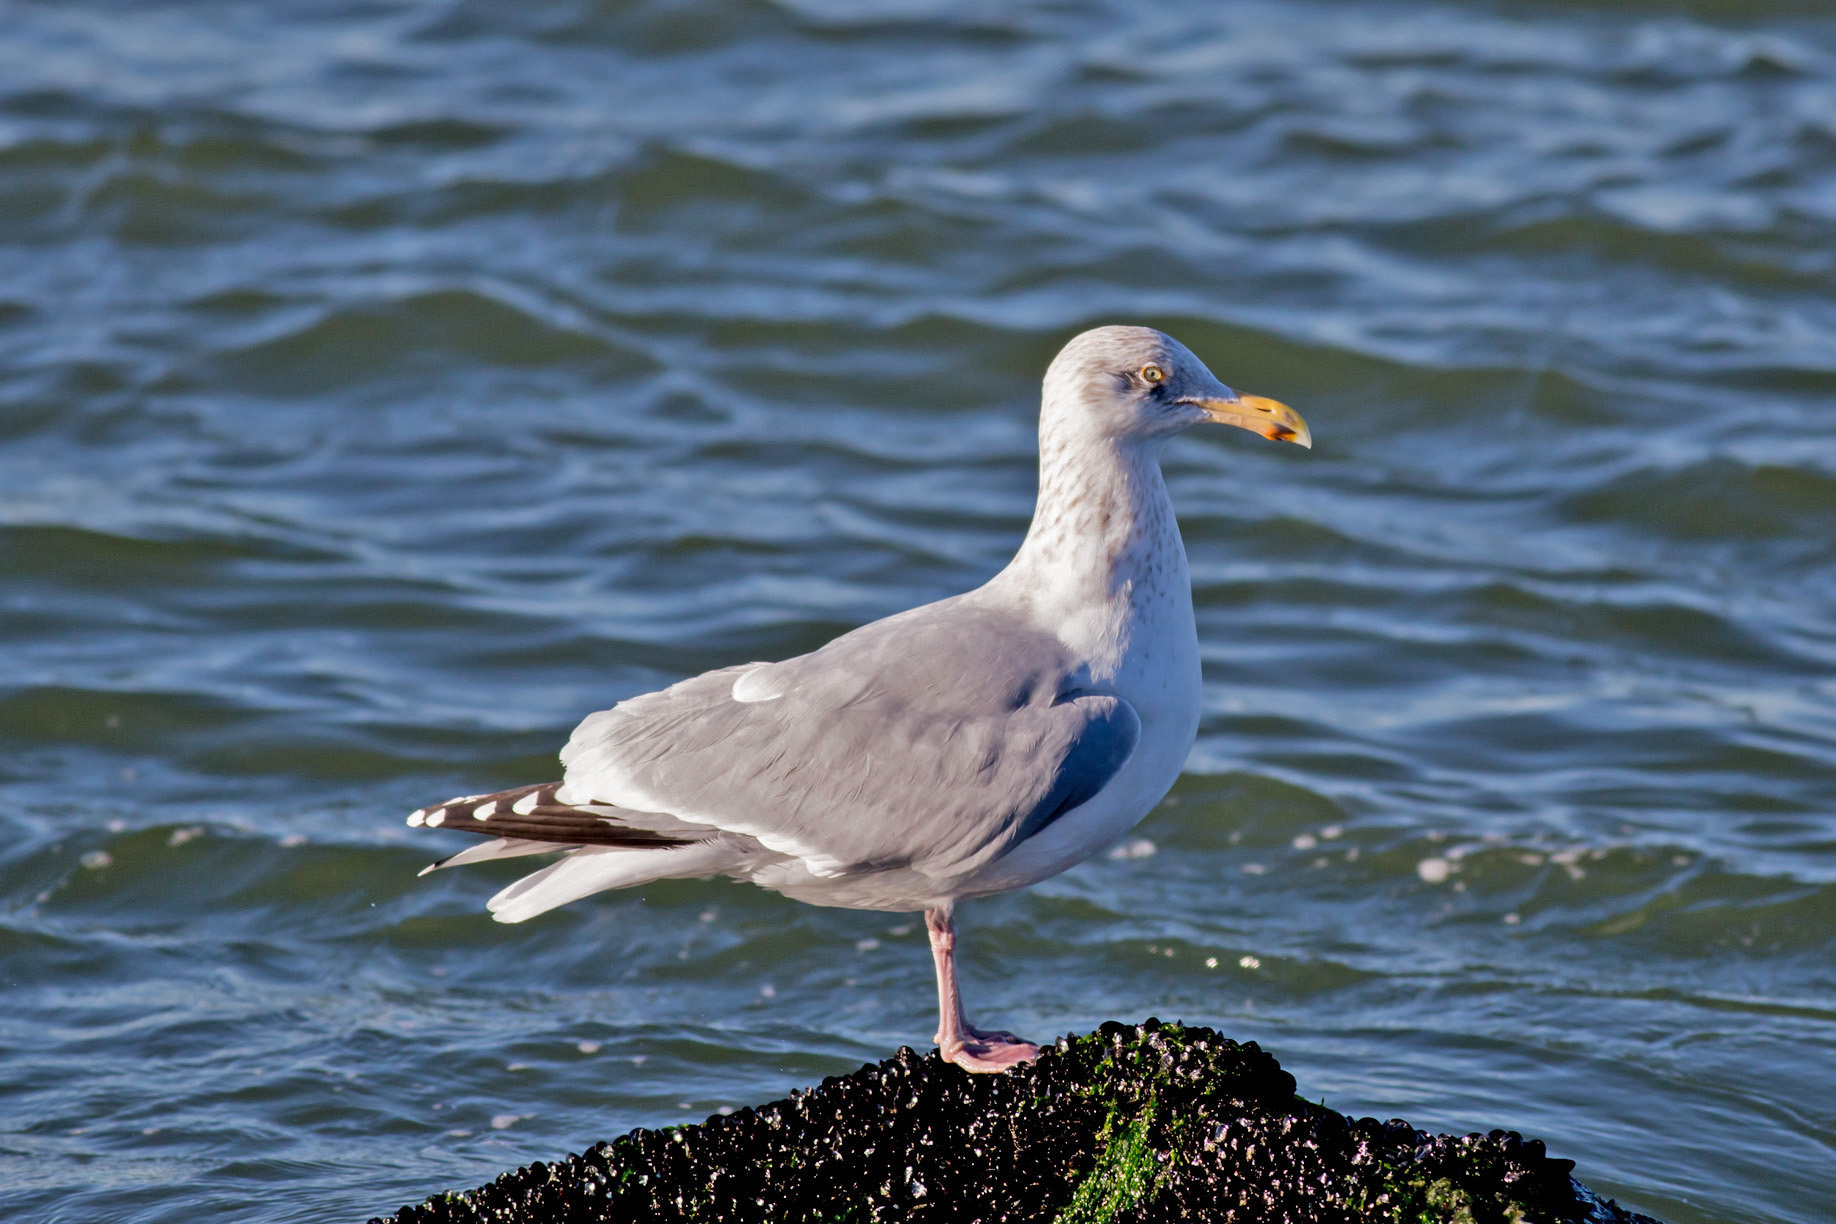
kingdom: Animalia
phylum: Chordata
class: Aves
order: Charadriiformes
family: Laridae
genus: Larus
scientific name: Larus argentatus
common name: Herring gull
